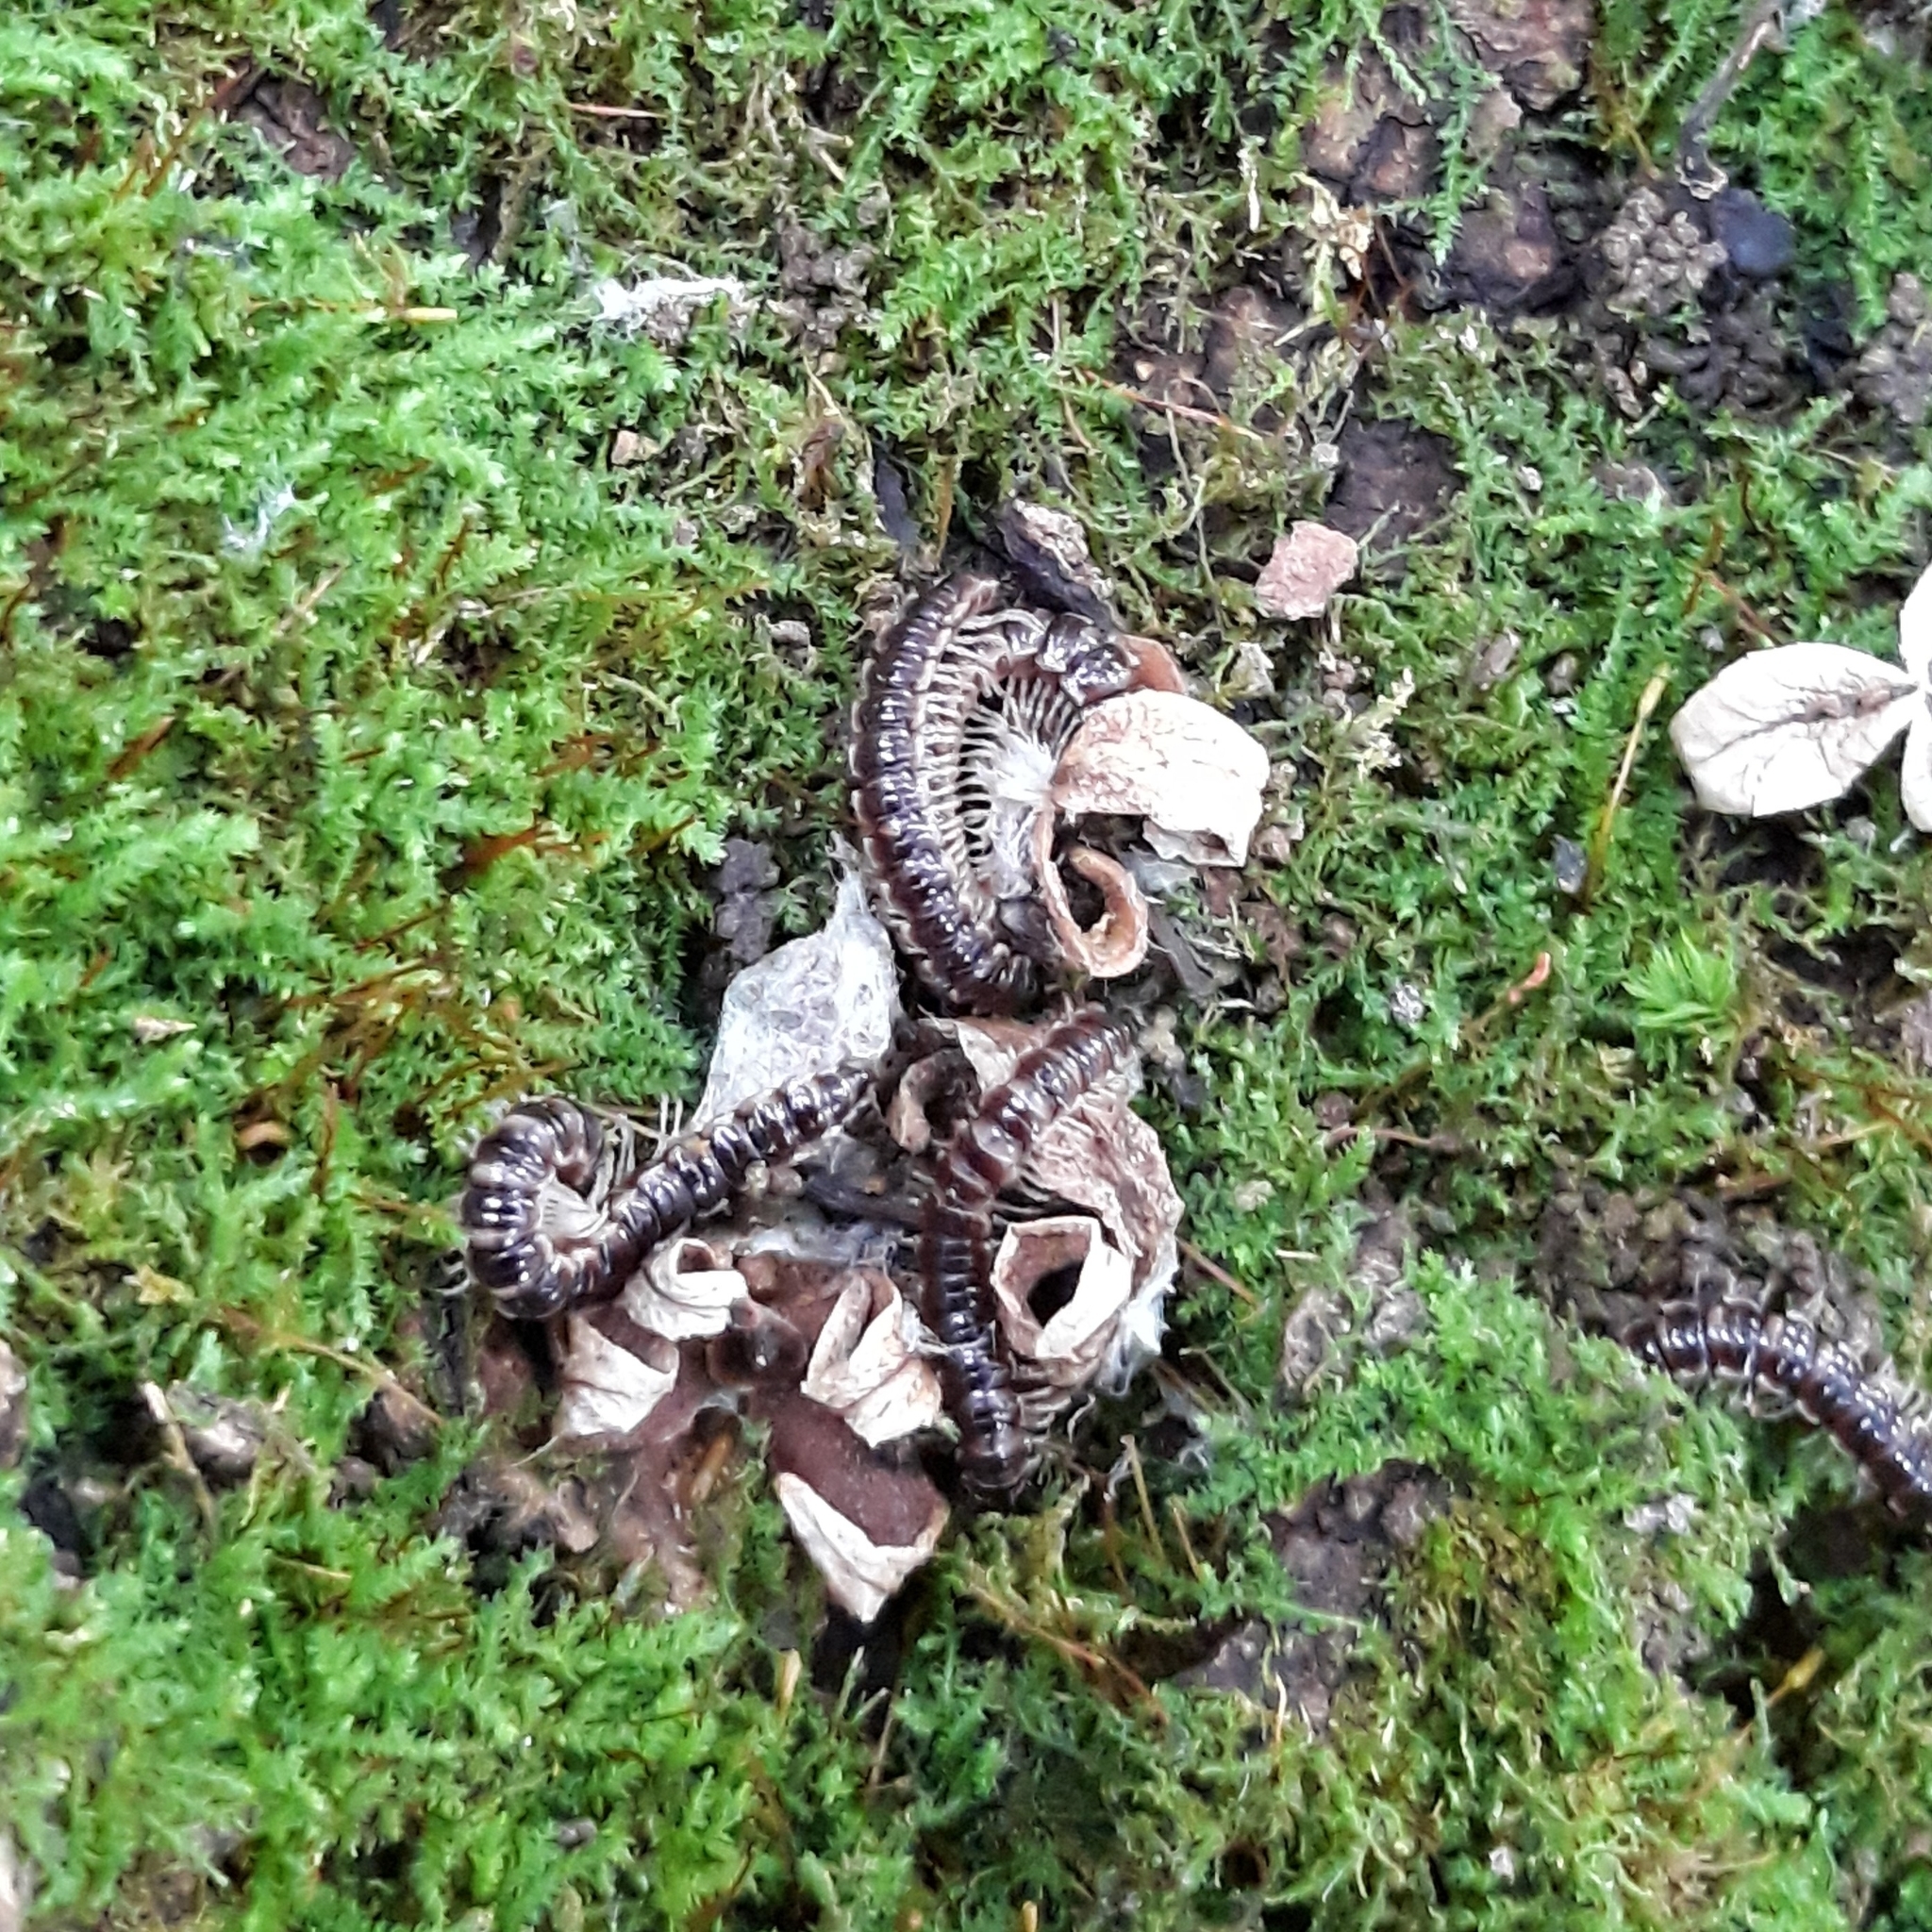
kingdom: Animalia
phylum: Arthropoda
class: Diplopoda
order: Polydesmida
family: Paradoxosomatidae
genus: Oxidus
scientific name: Oxidus gracilis
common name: Greenhouse millipede
